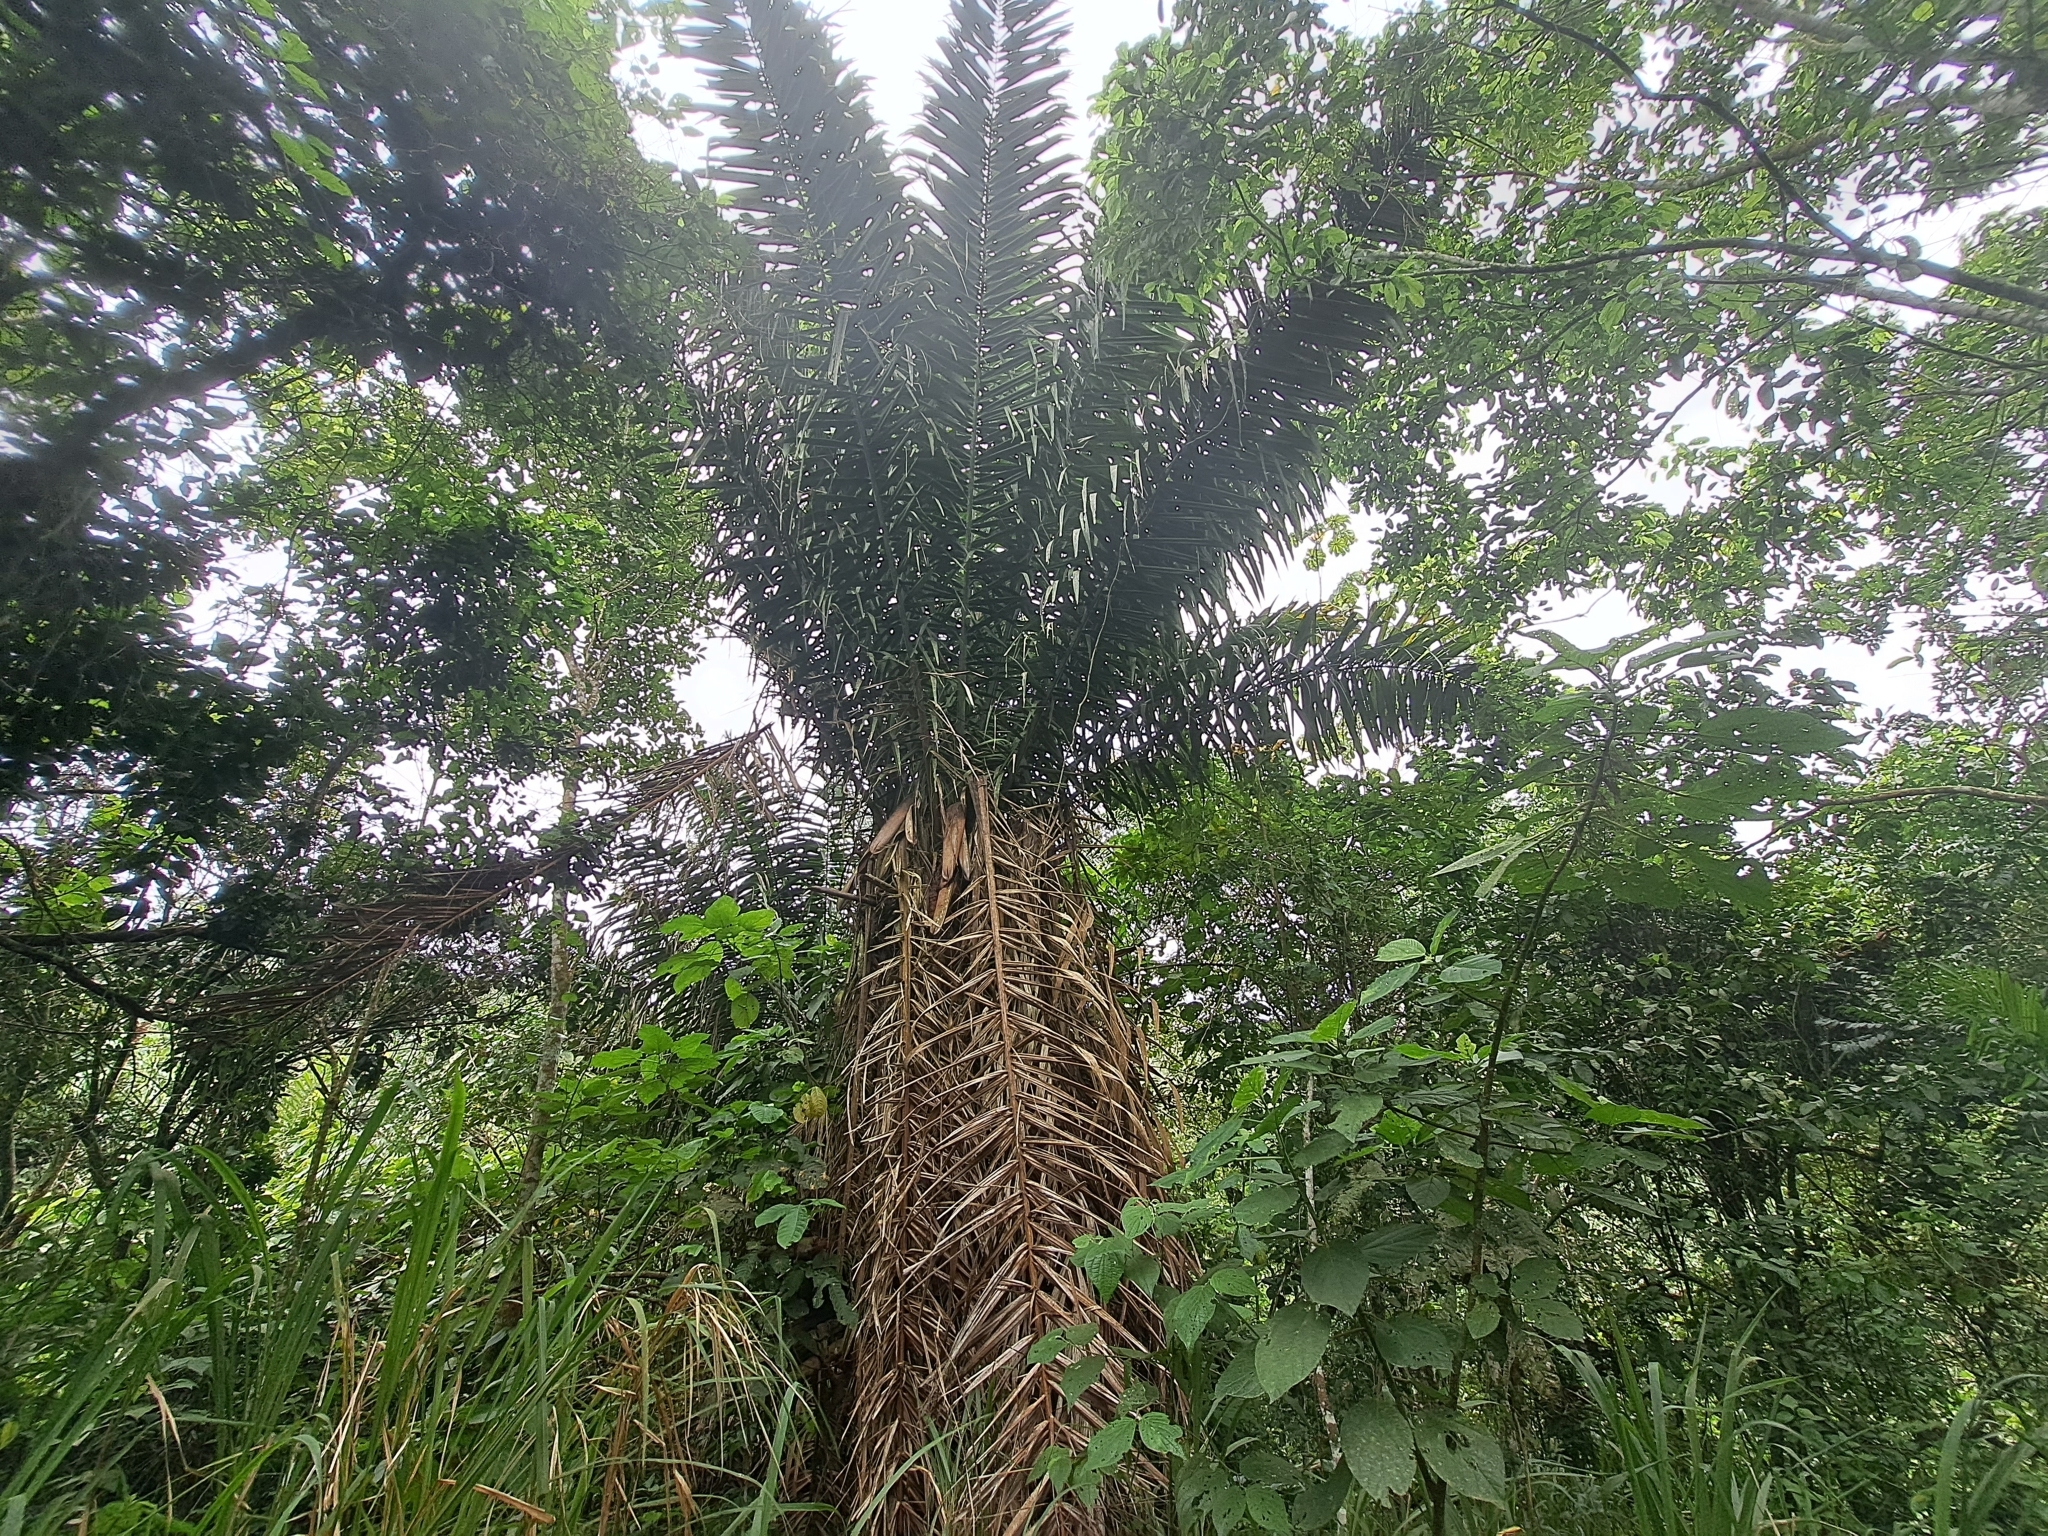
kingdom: Plantae
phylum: Tracheophyta
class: Liliopsida
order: Arecales
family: Arecaceae
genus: Phytelephas
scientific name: Phytelephas aequatorialis
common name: Ivory palm
